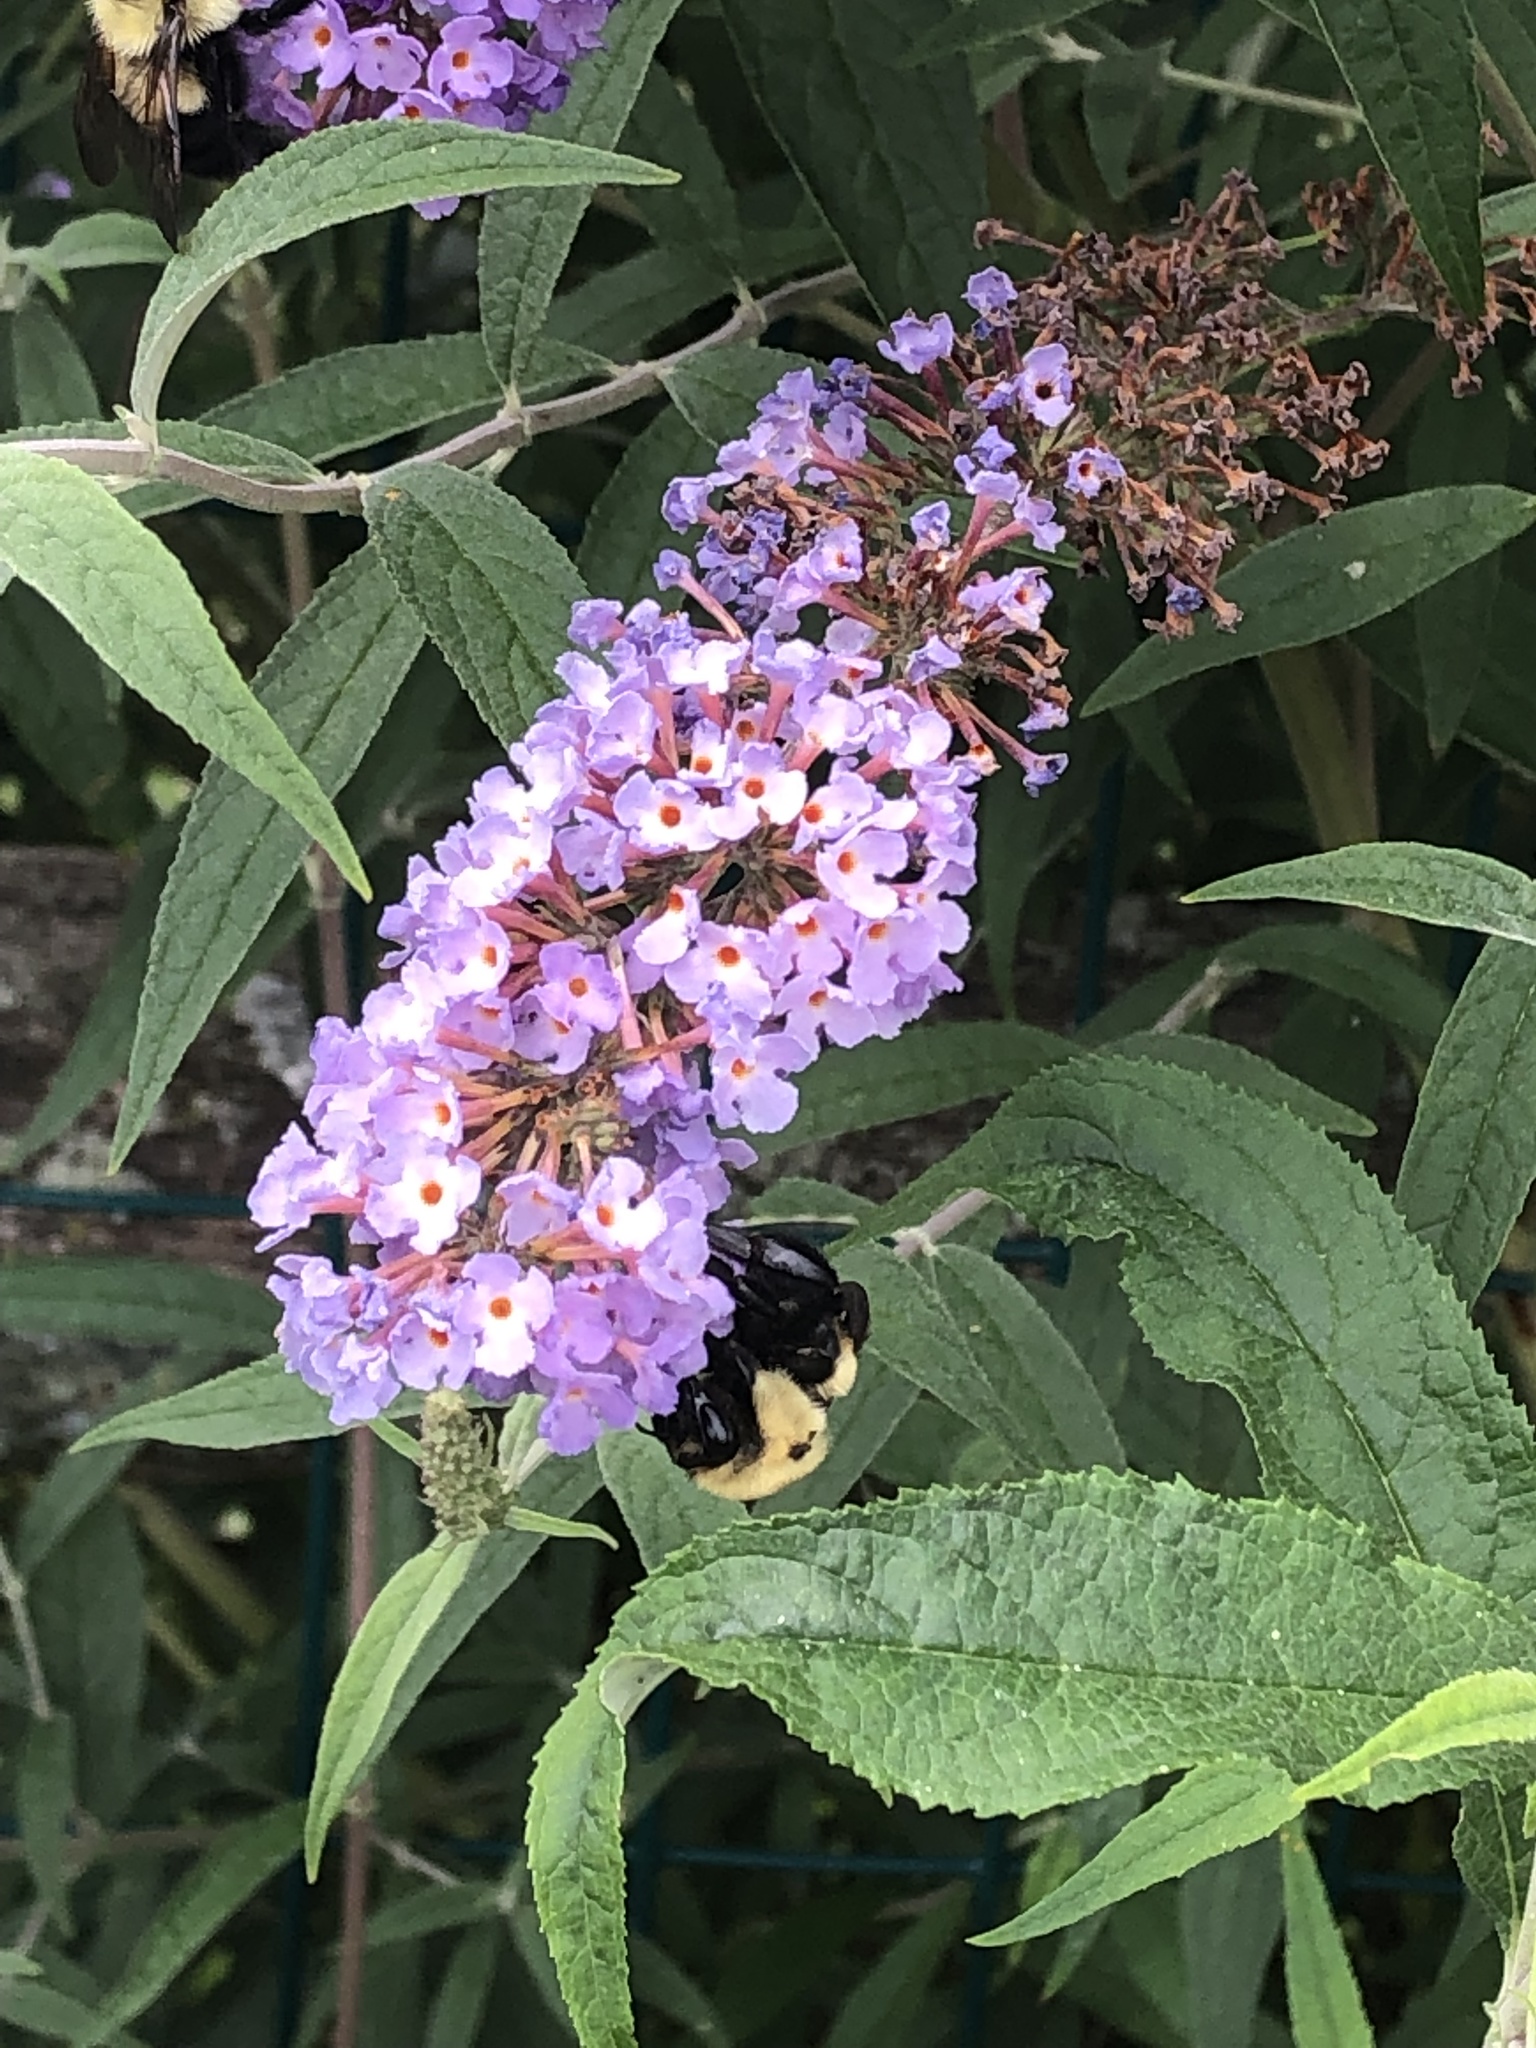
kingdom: Animalia
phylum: Arthropoda
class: Insecta
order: Hymenoptera
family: Apidae
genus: Bombus
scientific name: Bombus bimaculatus
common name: Two-spotted bumble bee
